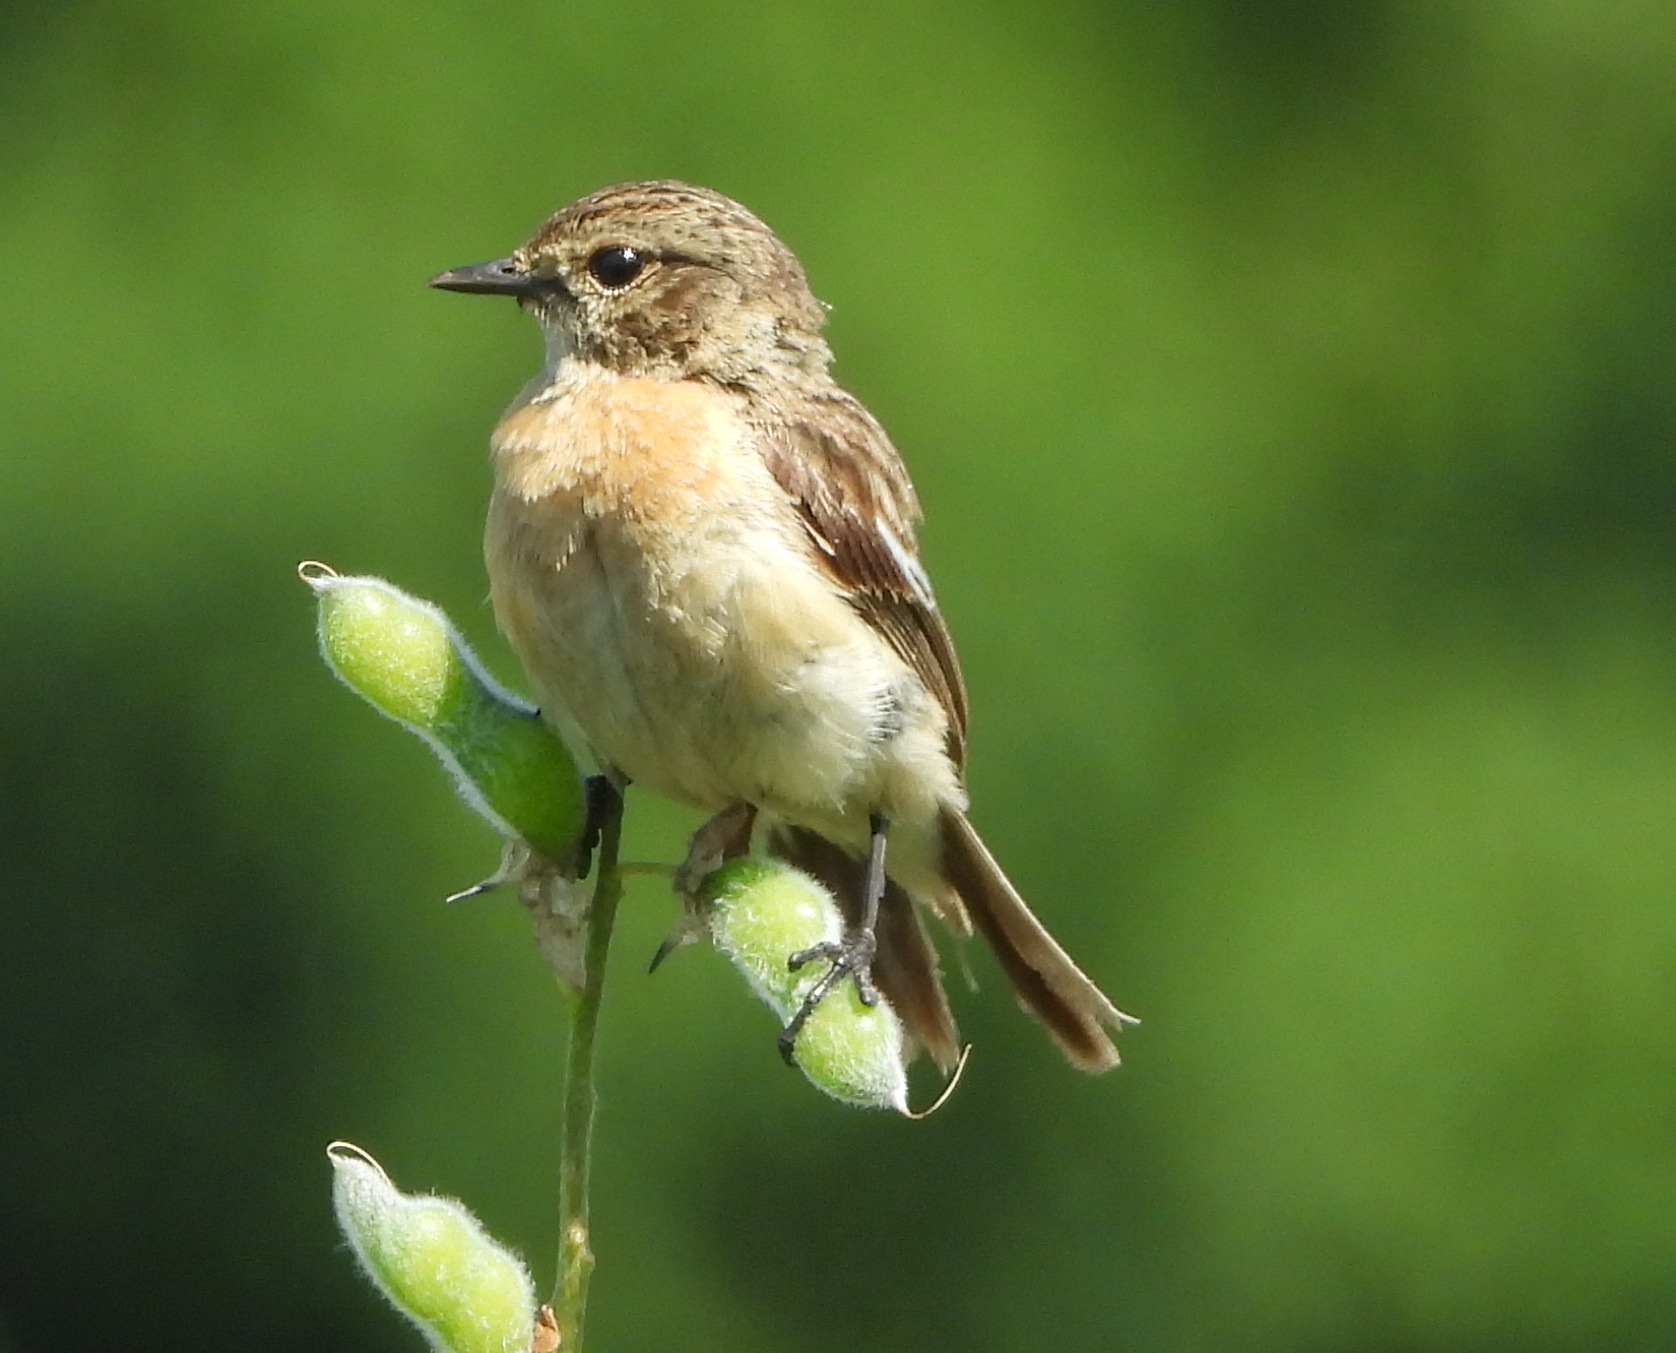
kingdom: Animalia
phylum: Chordata
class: Aves
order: Passeriformes
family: Muscicapidae
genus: Saxicola
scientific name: Saxicola maurus
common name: Siberian stonechat
